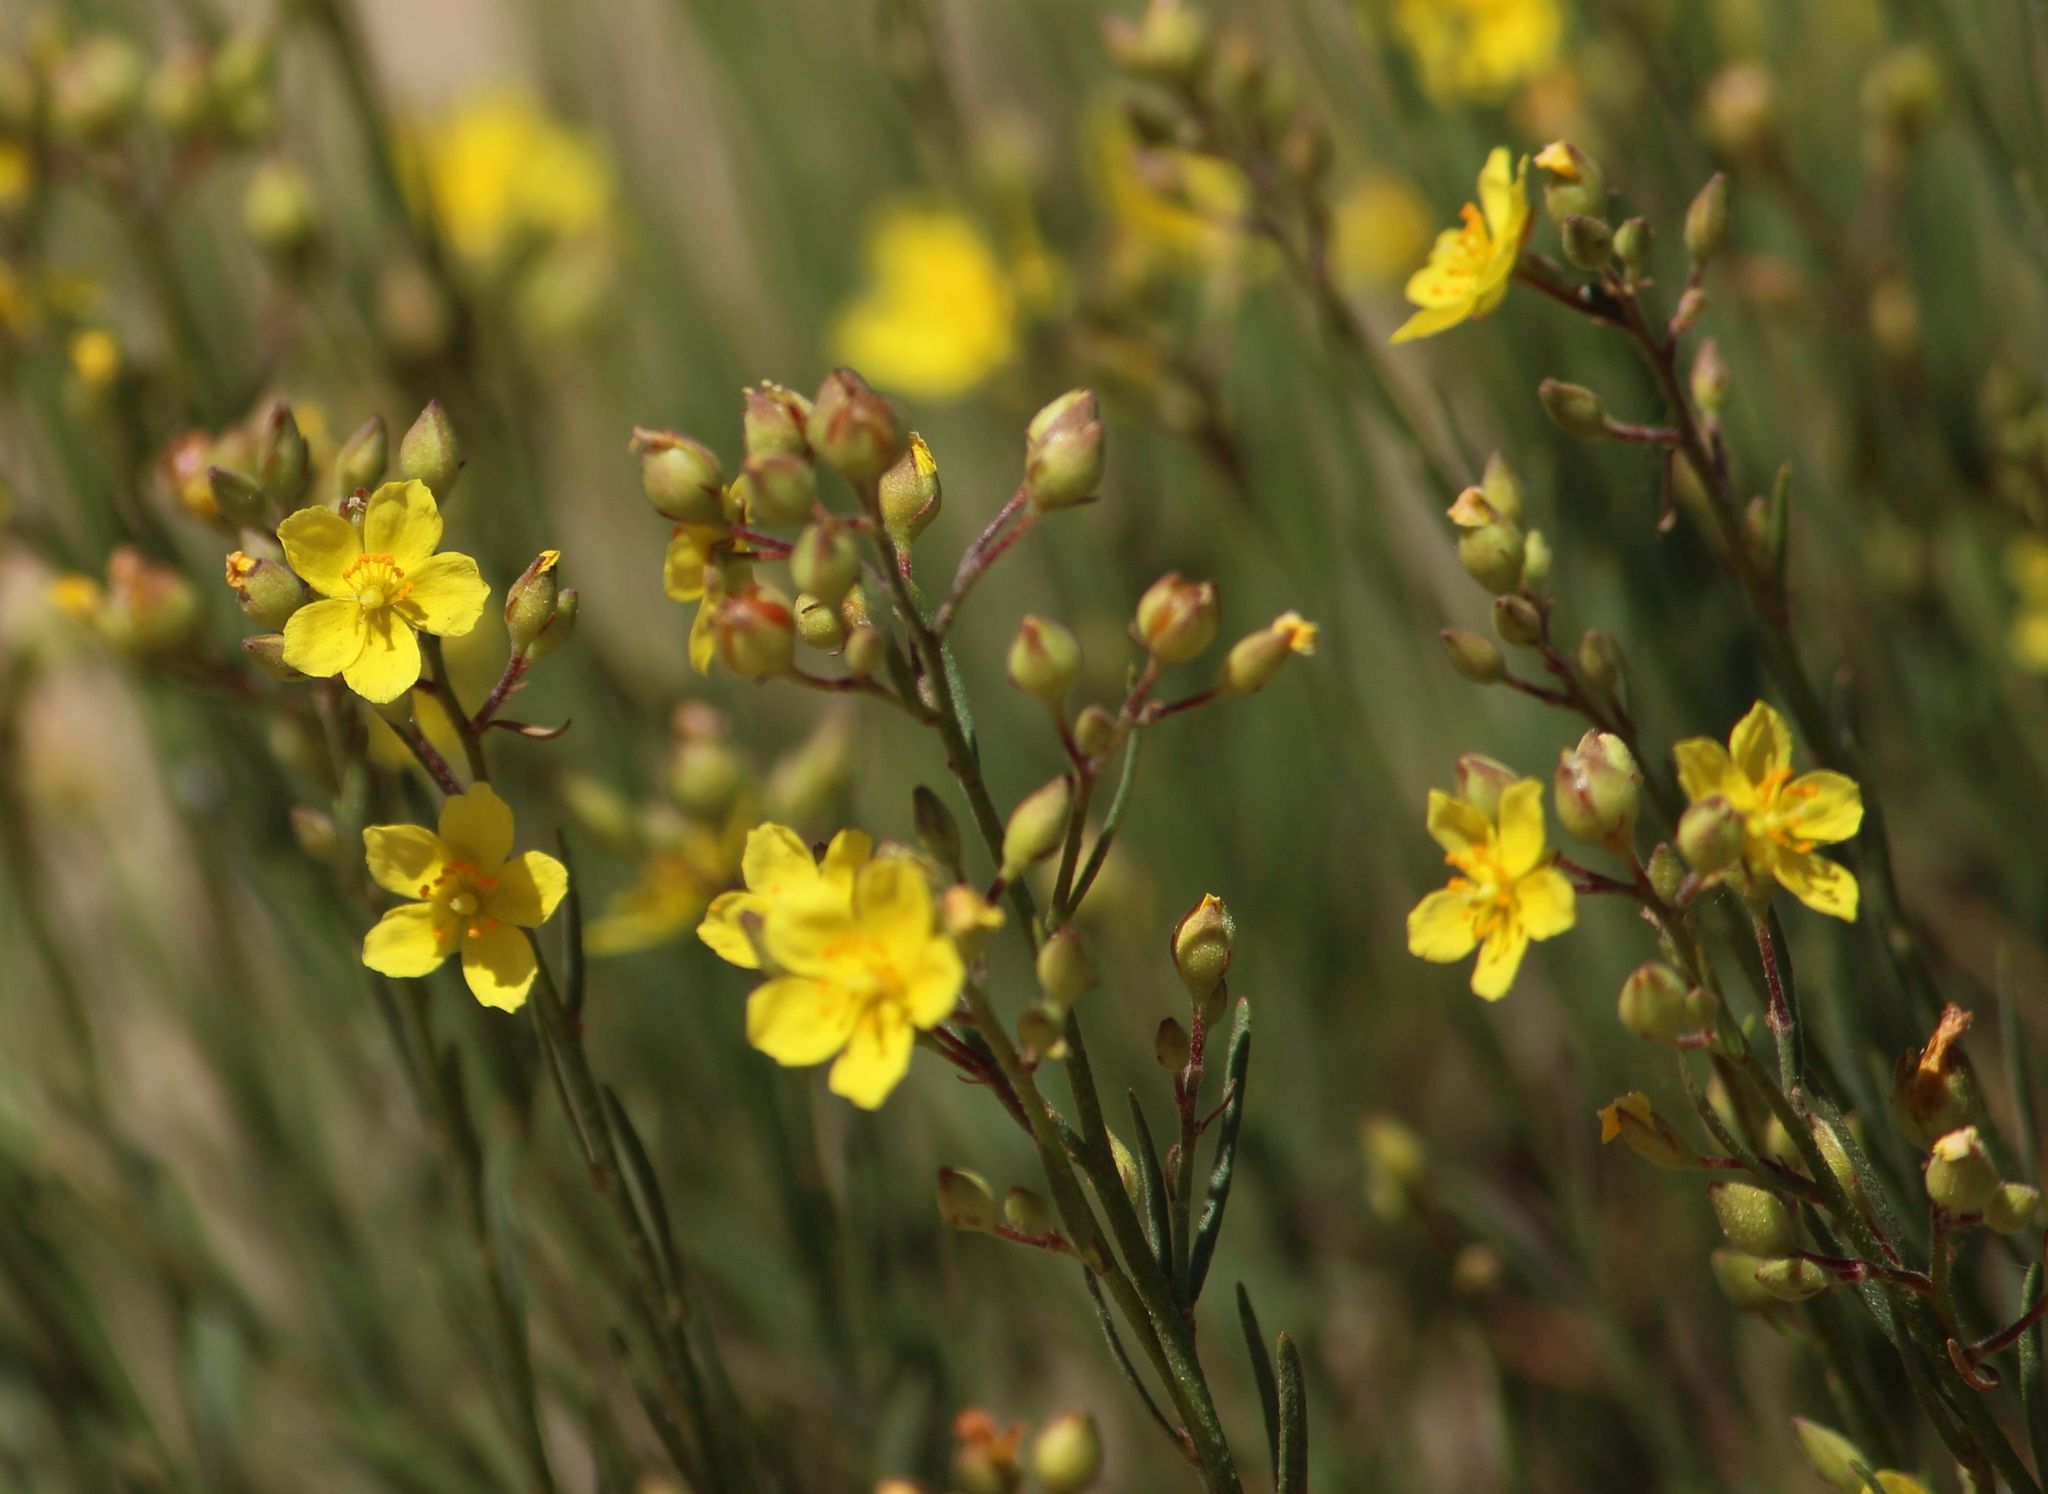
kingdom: Plantae
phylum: Tracheophyta
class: Magnoliopsida
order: Malvales
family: Cistaceae
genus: Crocanthemum
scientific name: Crocanthemum scoparium
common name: Broom-rose
